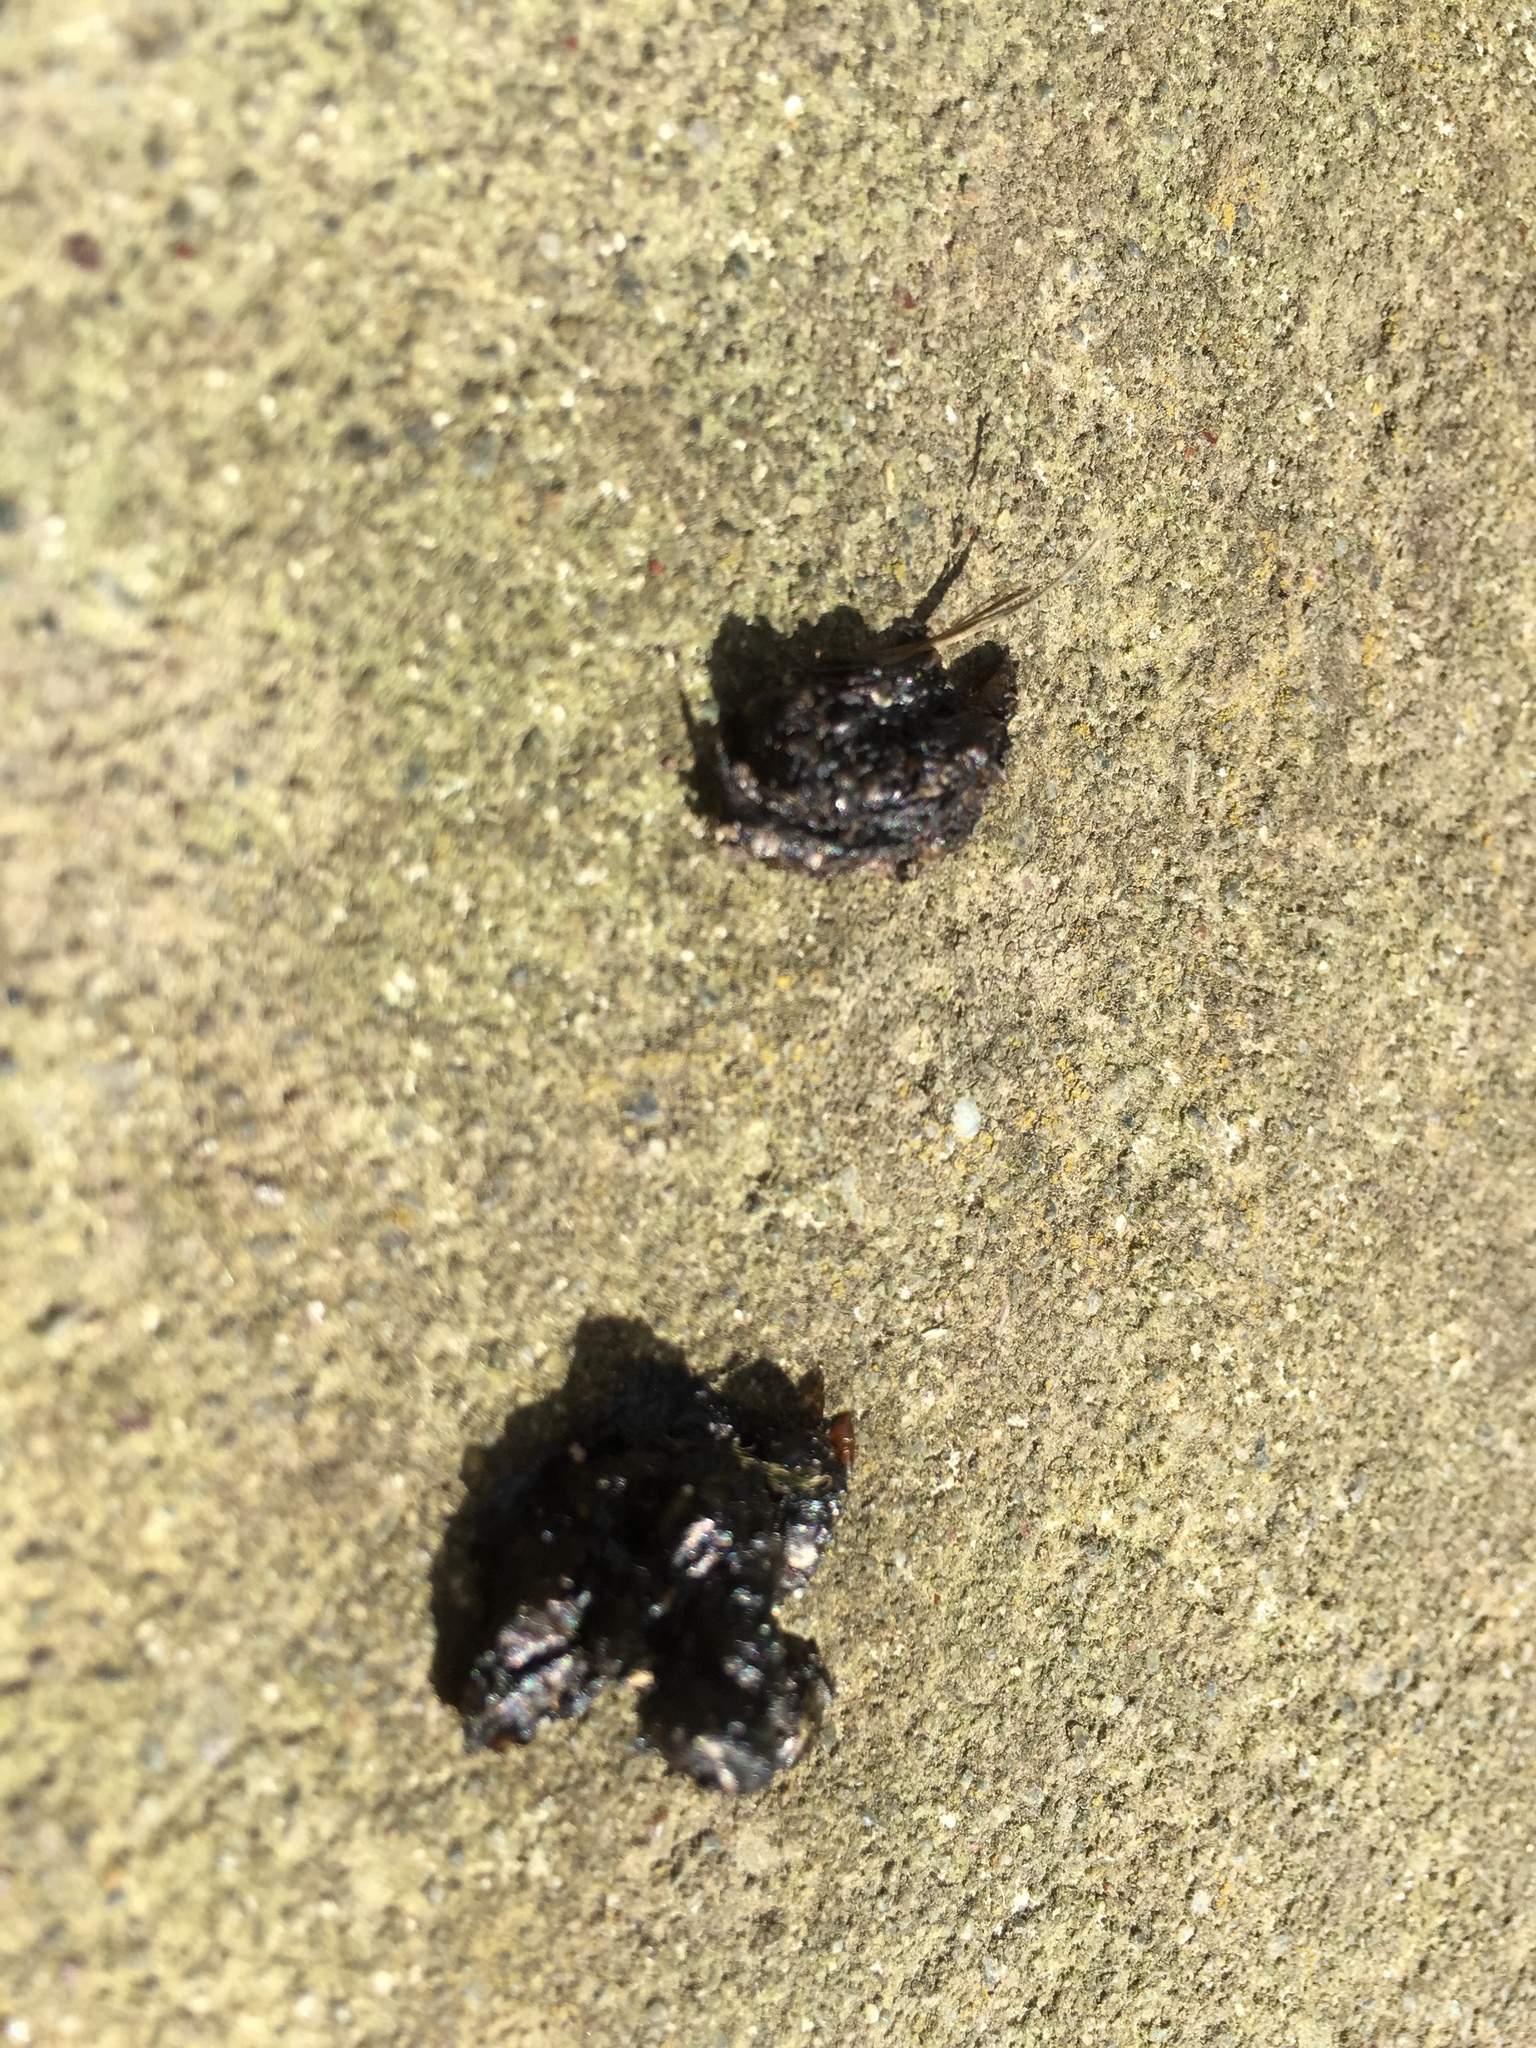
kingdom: Animalia
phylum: Chordata
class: Mammalia
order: Erinaceomorpha
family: Erinaceidae
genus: Erinaceus
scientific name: Erinaceus europaeus
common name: West european hedgehog
